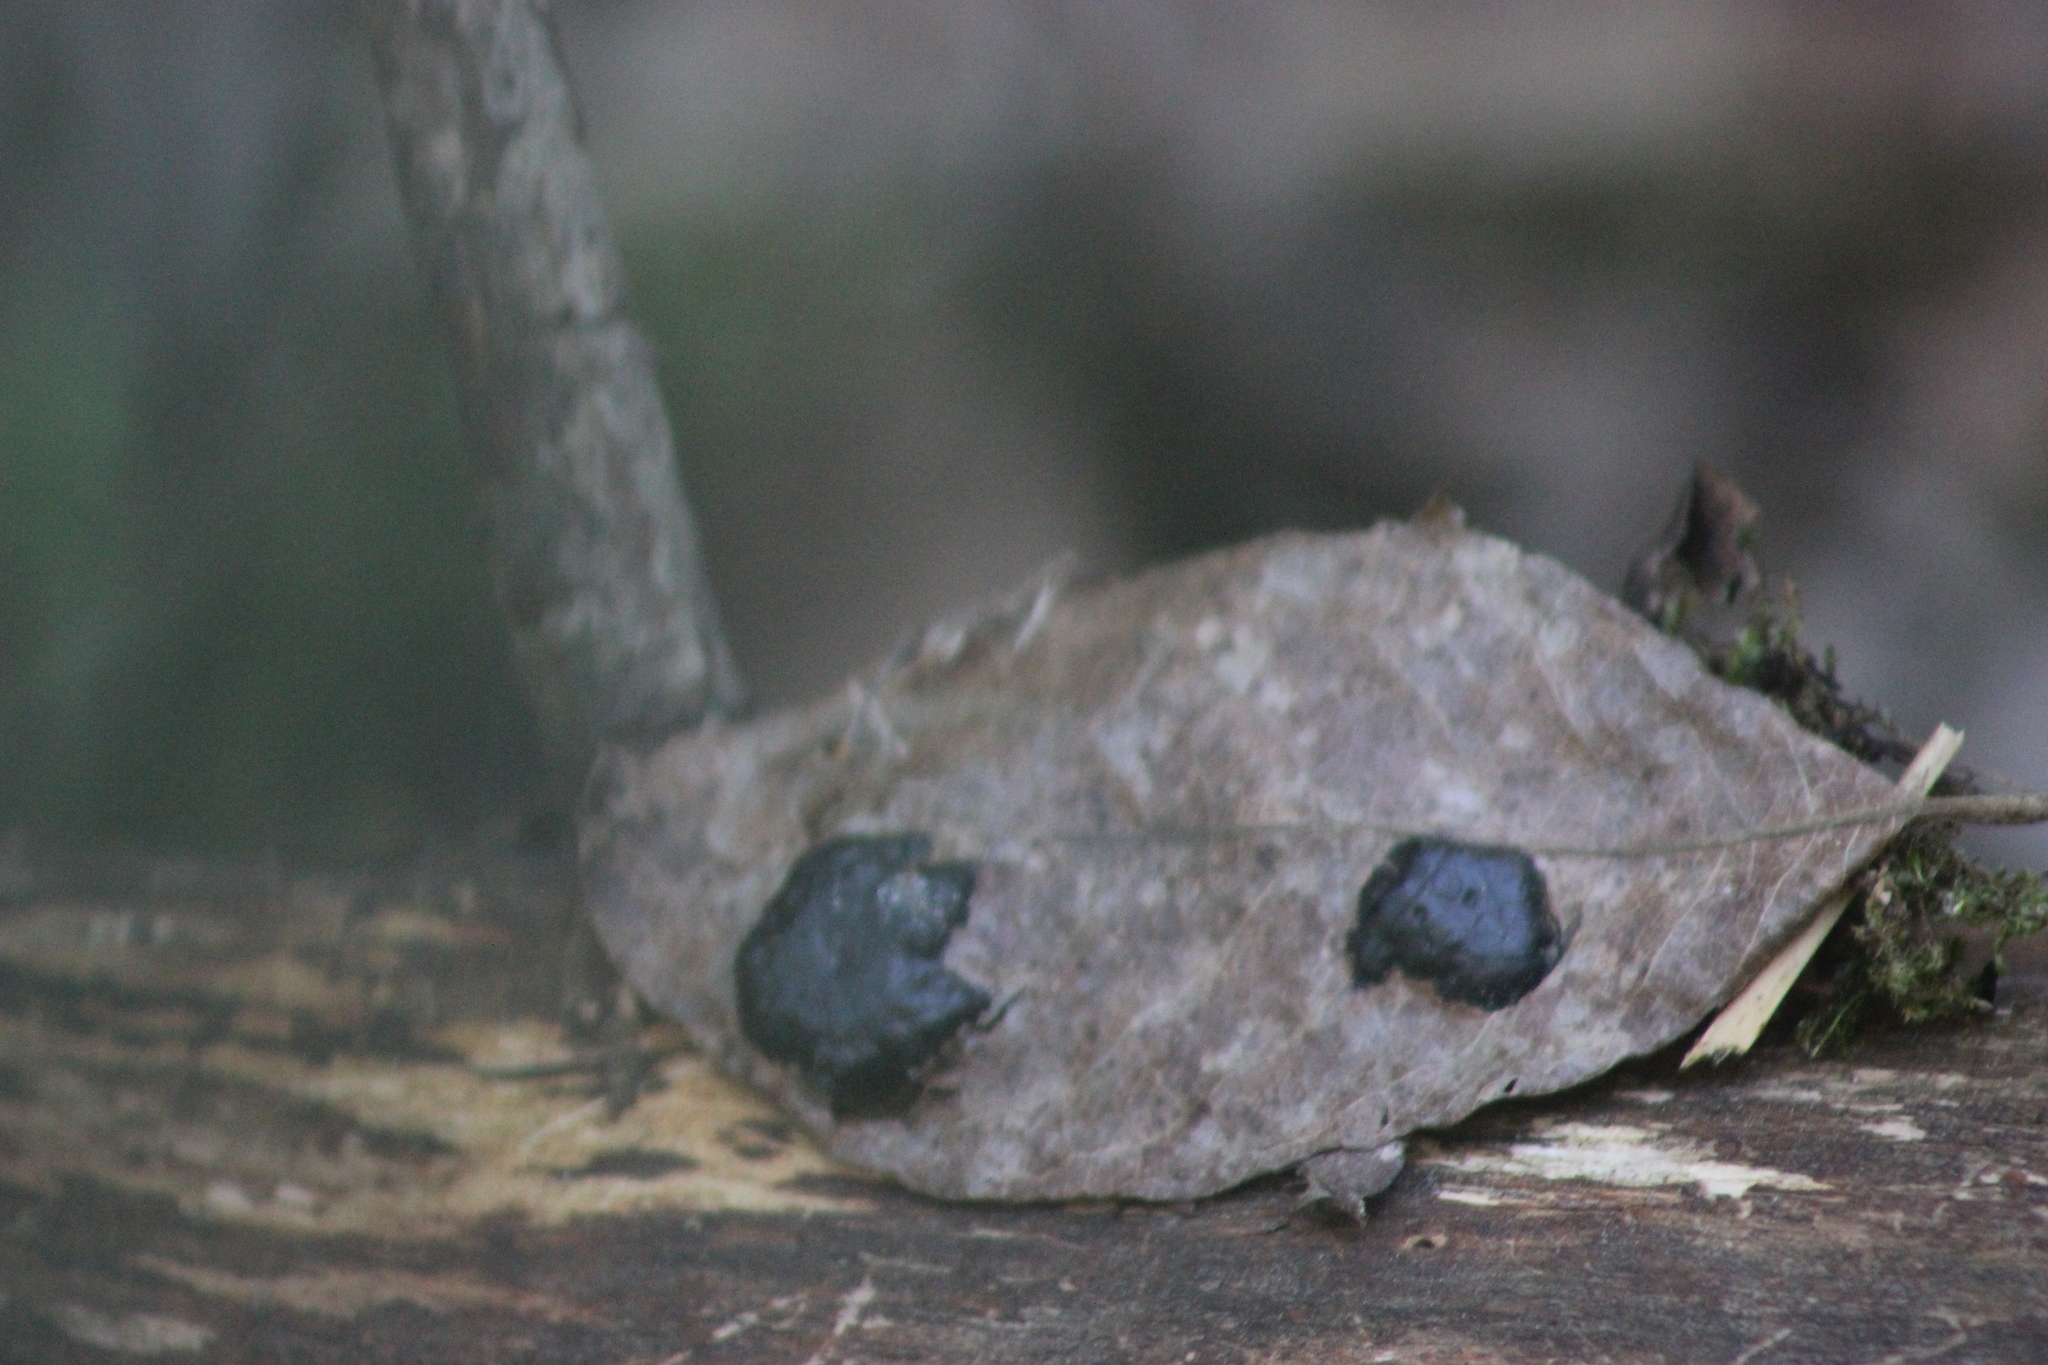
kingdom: Fungi
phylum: Ascomycota
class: Leotiomycetes
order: Rhytismatales
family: Rhytismataceae
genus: Rhytisma
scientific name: Rhytisma salicinum
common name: Willow tarspot
